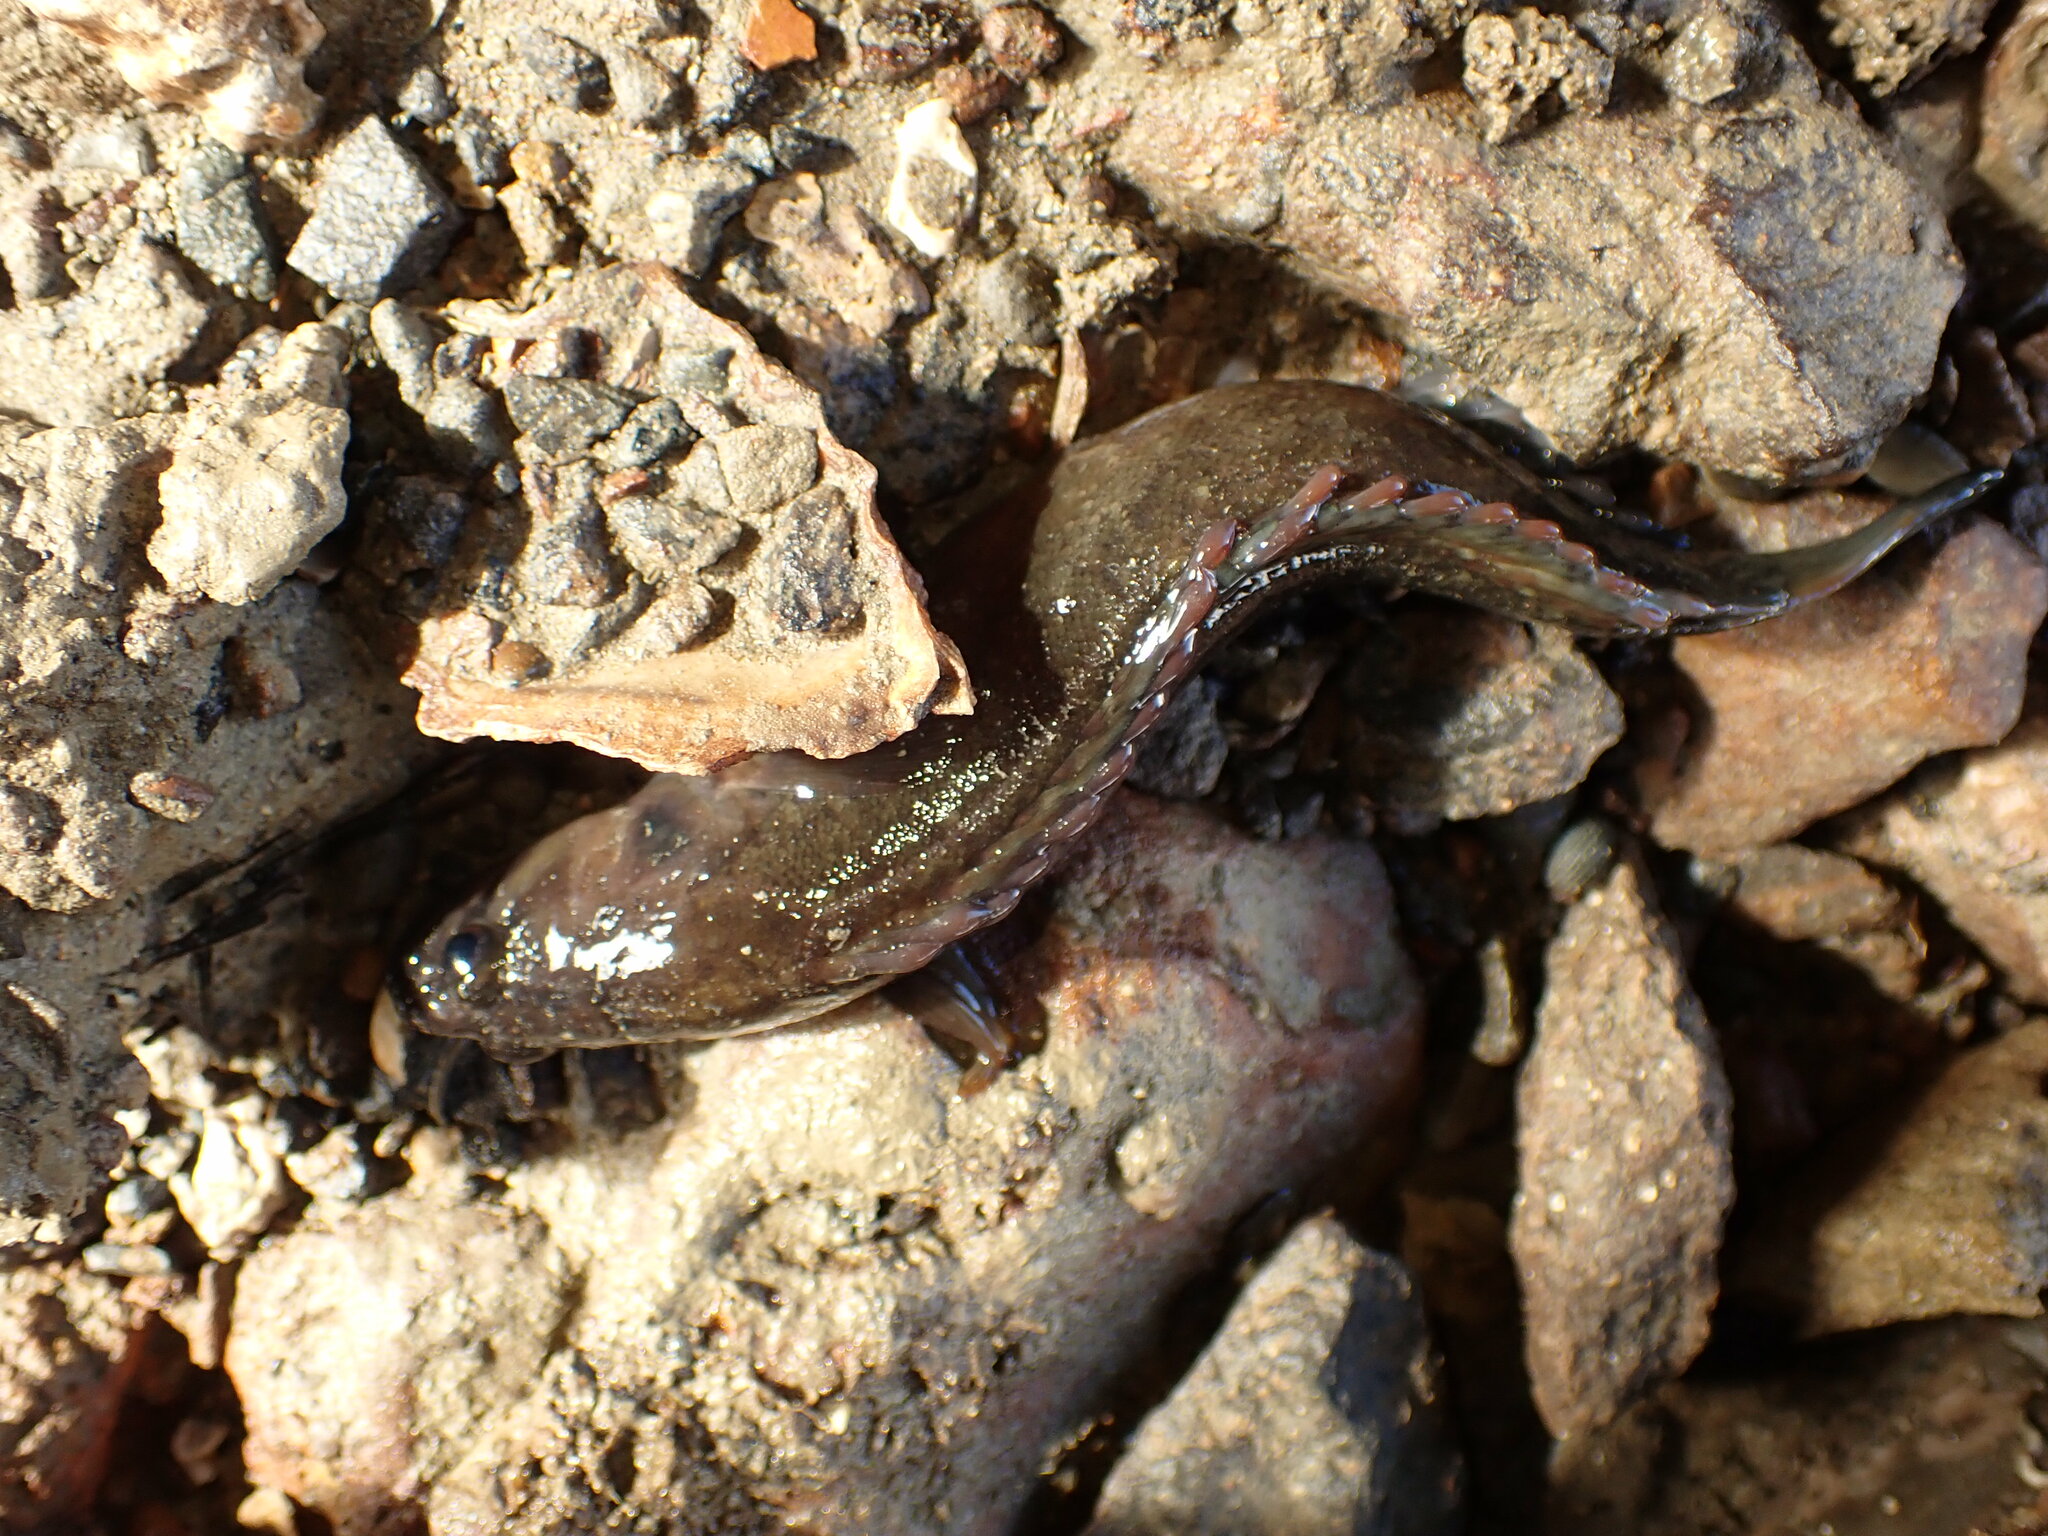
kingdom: Animalia
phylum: Chordata
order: Perciformes
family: Plesiopidae
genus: Acanthoclinus
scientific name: Acanthoclinus fuscus
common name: Olive rockfish
